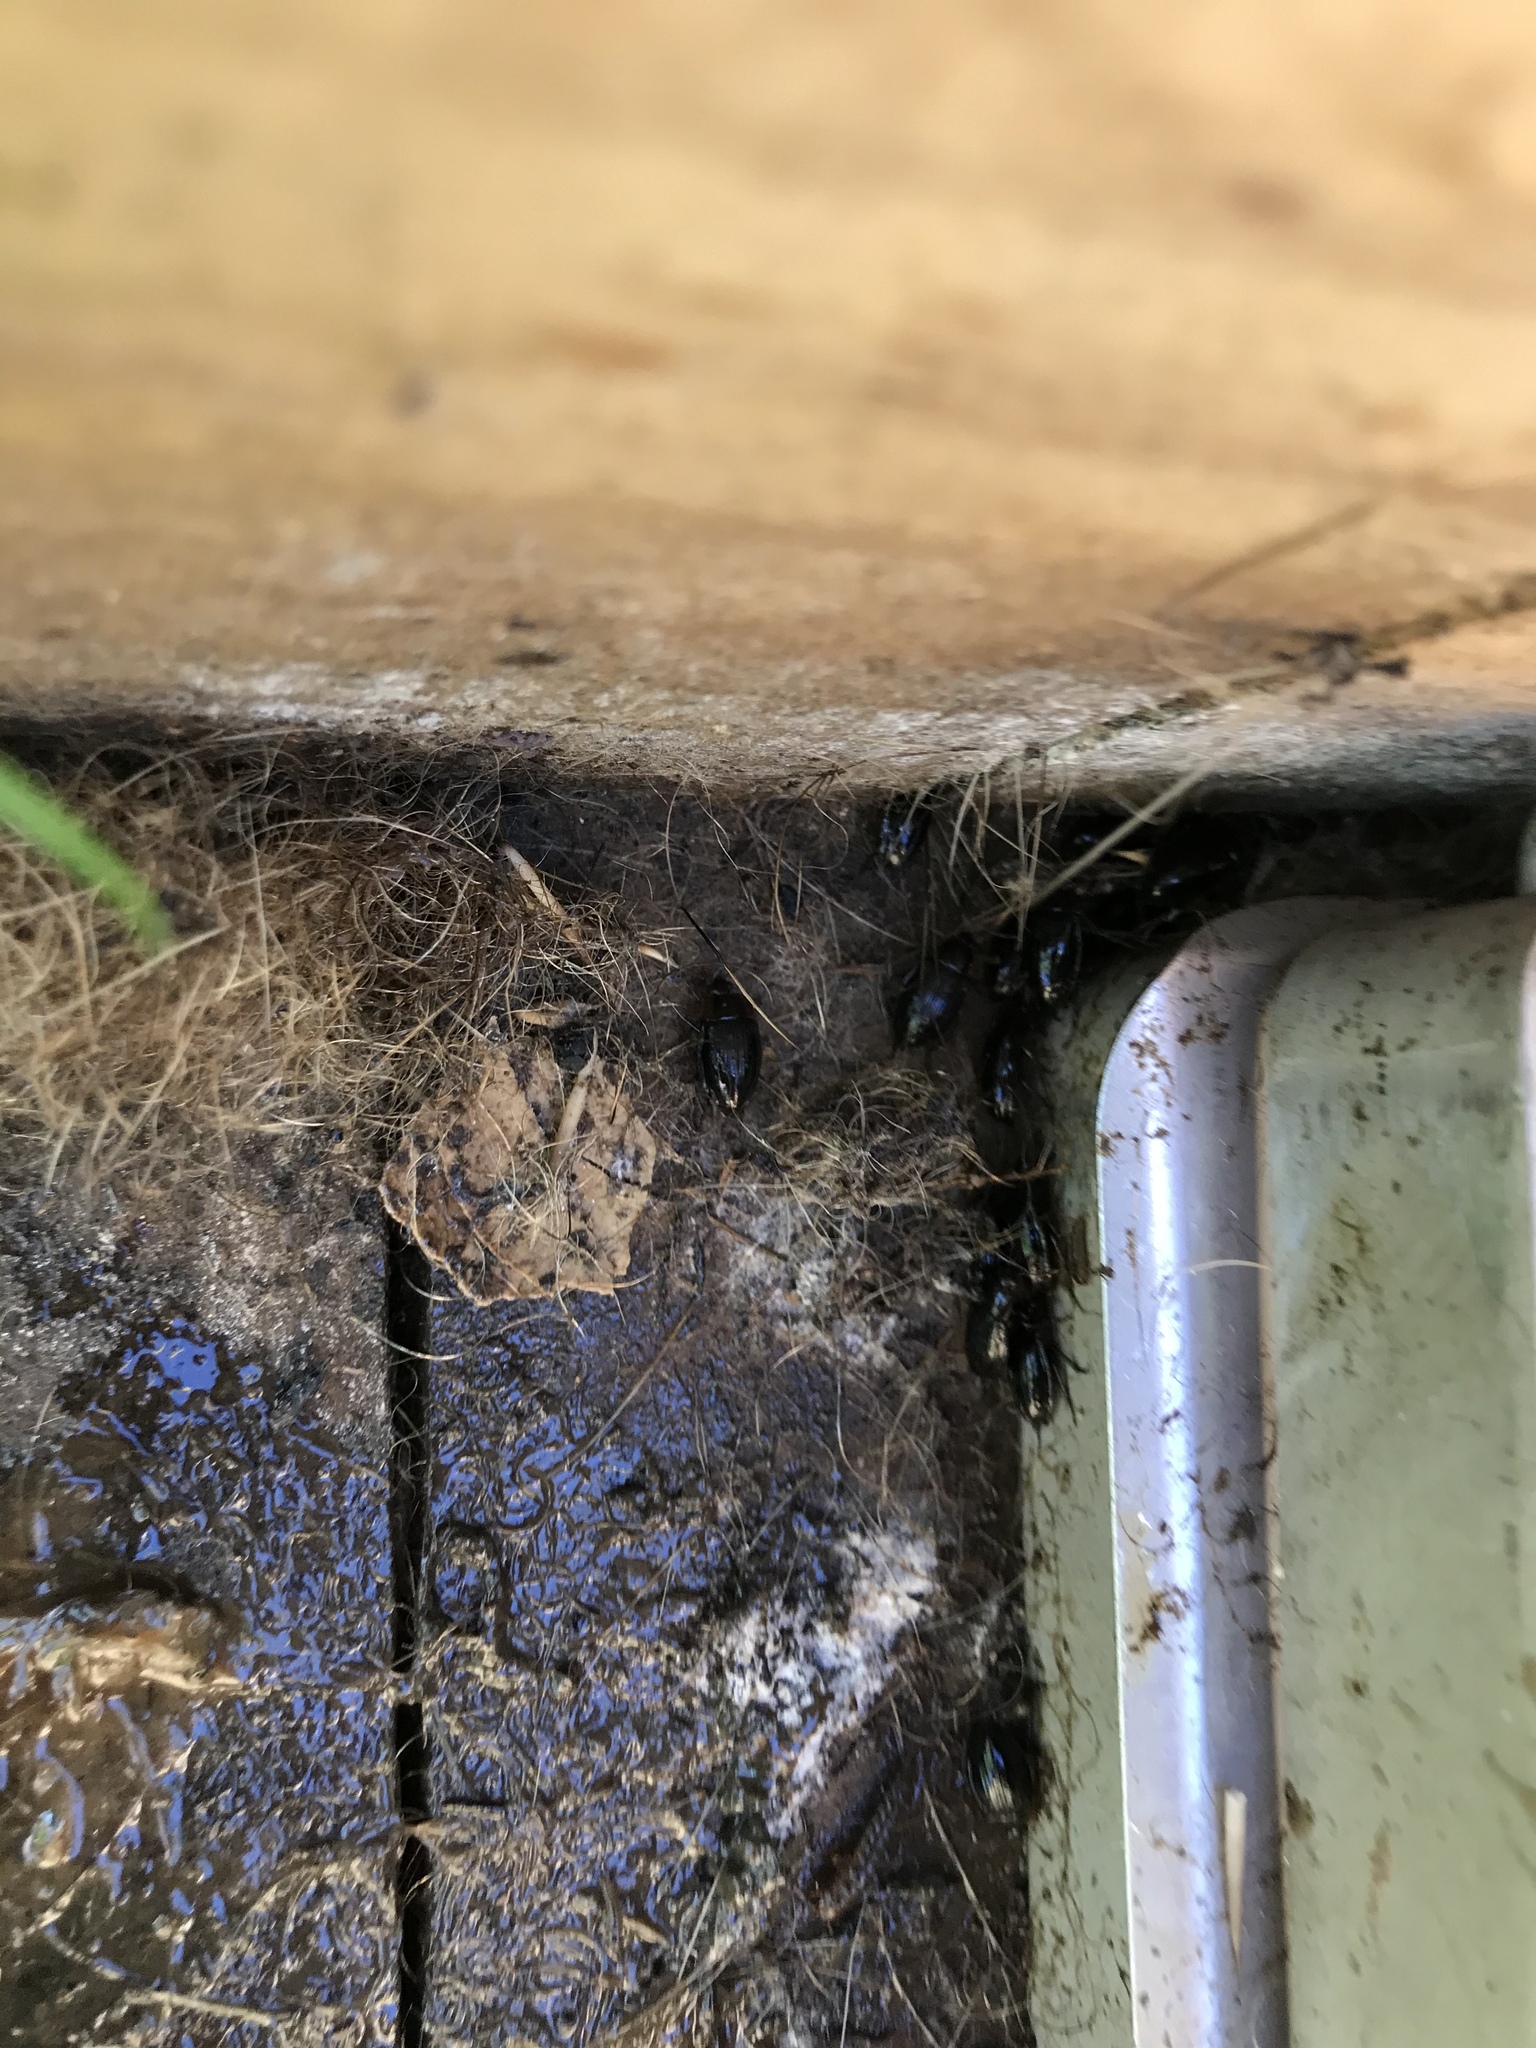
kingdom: Animalia
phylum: Arthropoda
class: Insecta
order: Coleoptera
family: Agyrtidae
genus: Zeanecrophilus
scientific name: Zeanecrophilus thayerae
